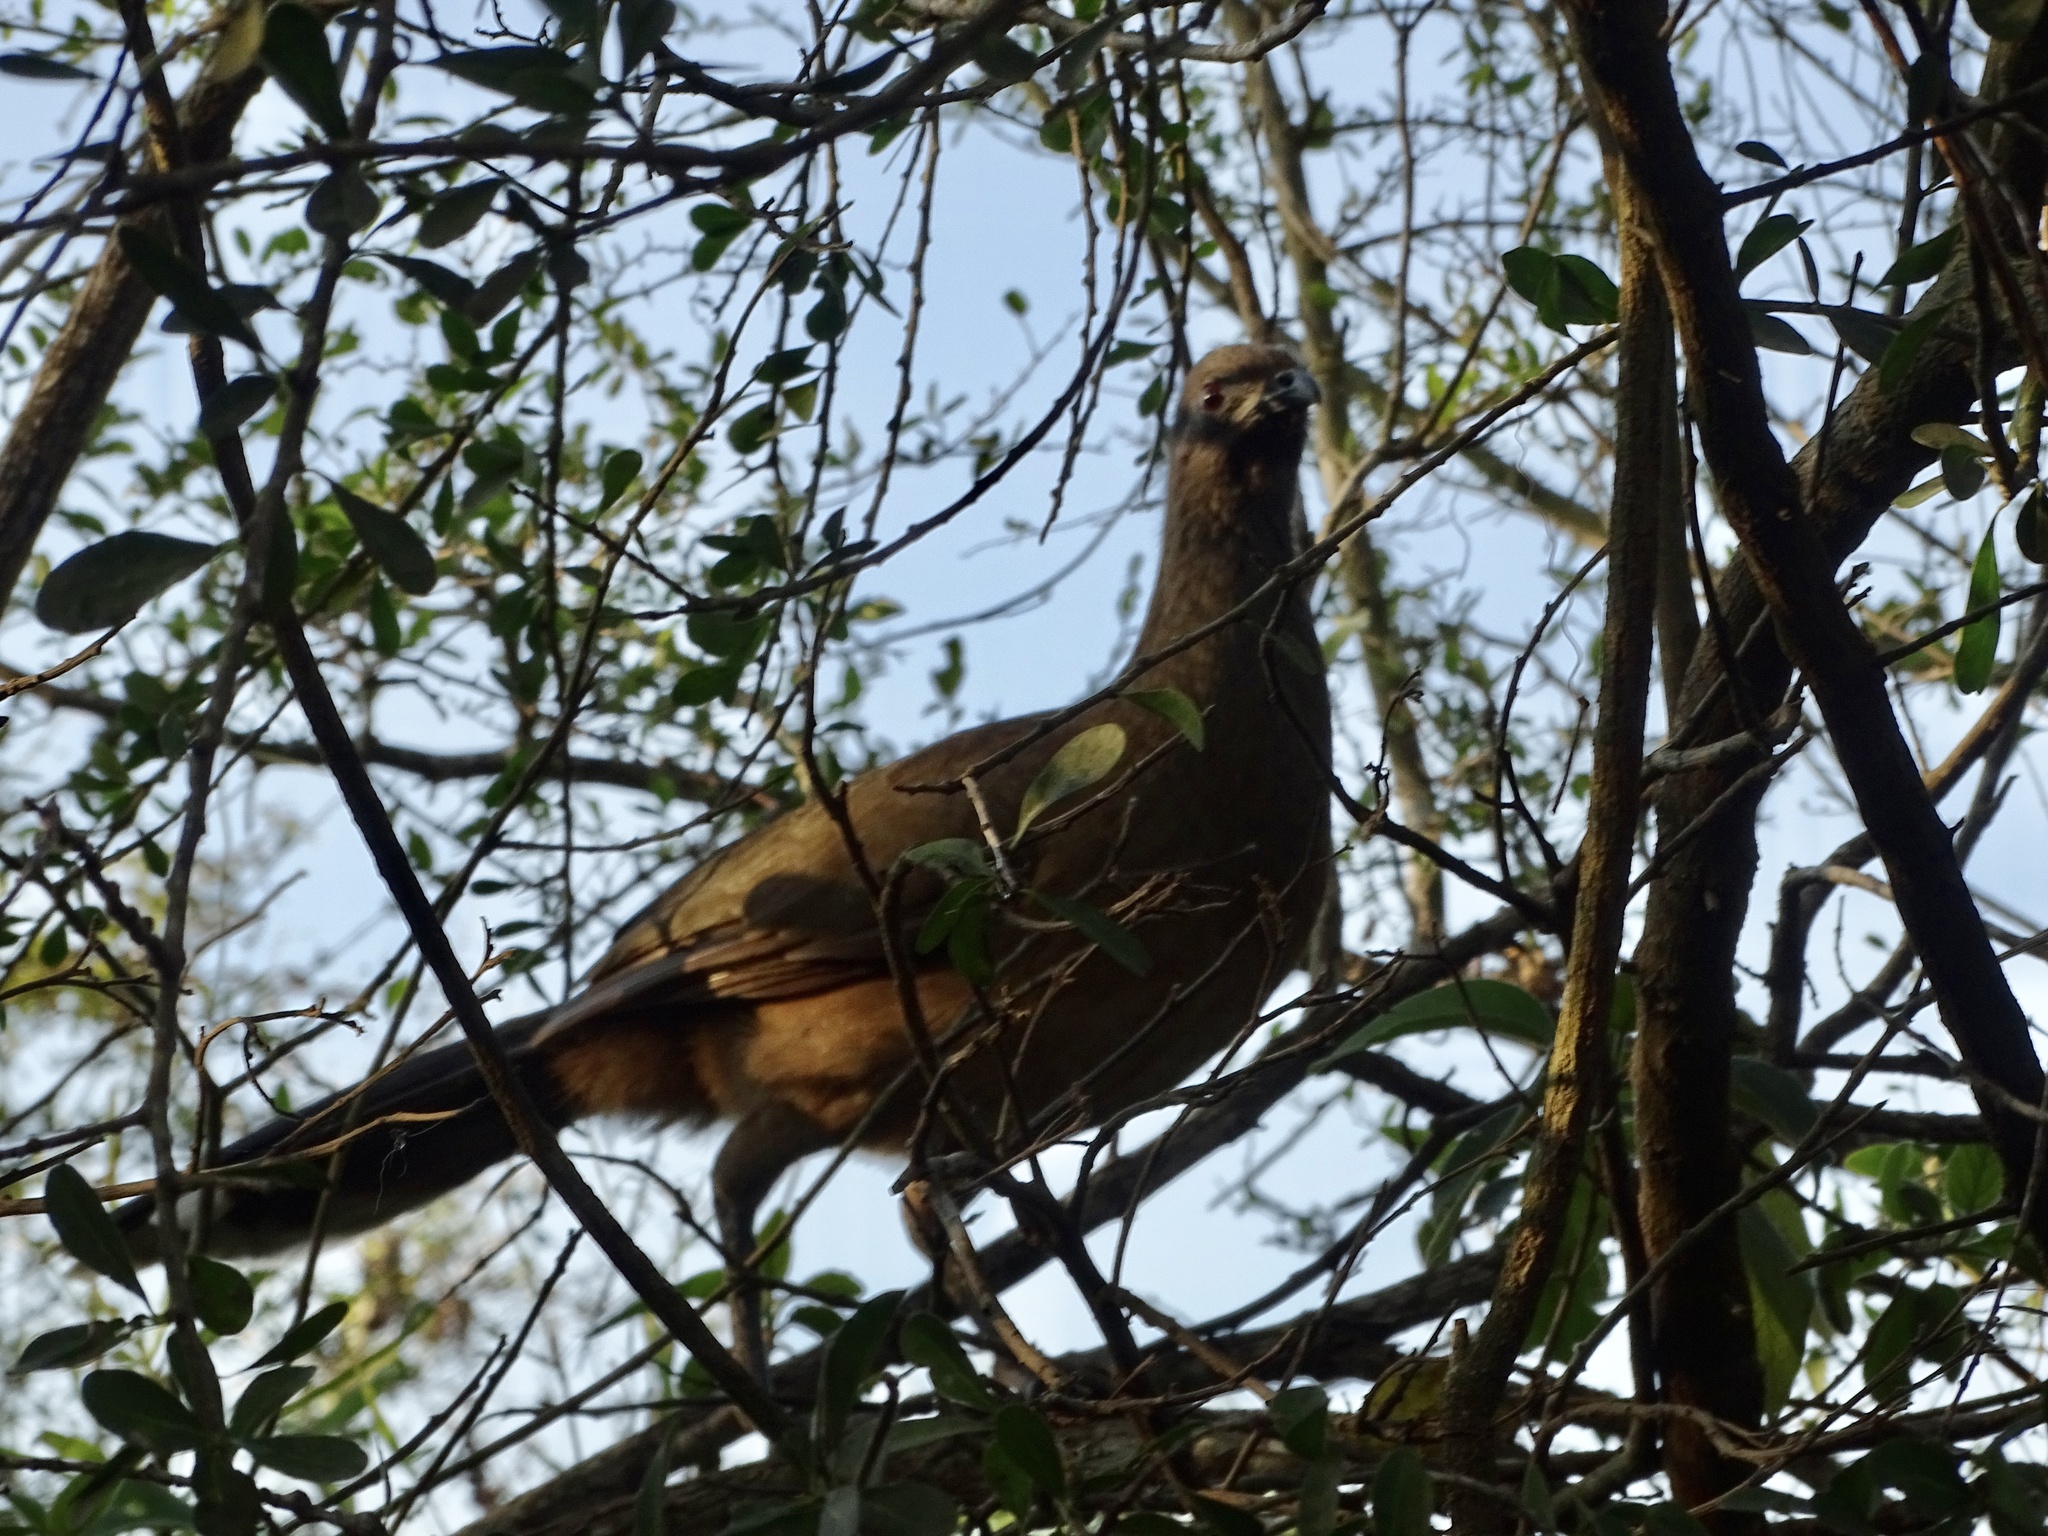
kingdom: Animalia
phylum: Chordata
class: Aves
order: Galliformes
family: Cracidae
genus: Ortalis
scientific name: Ortalis vetula
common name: Plain chachalaca
